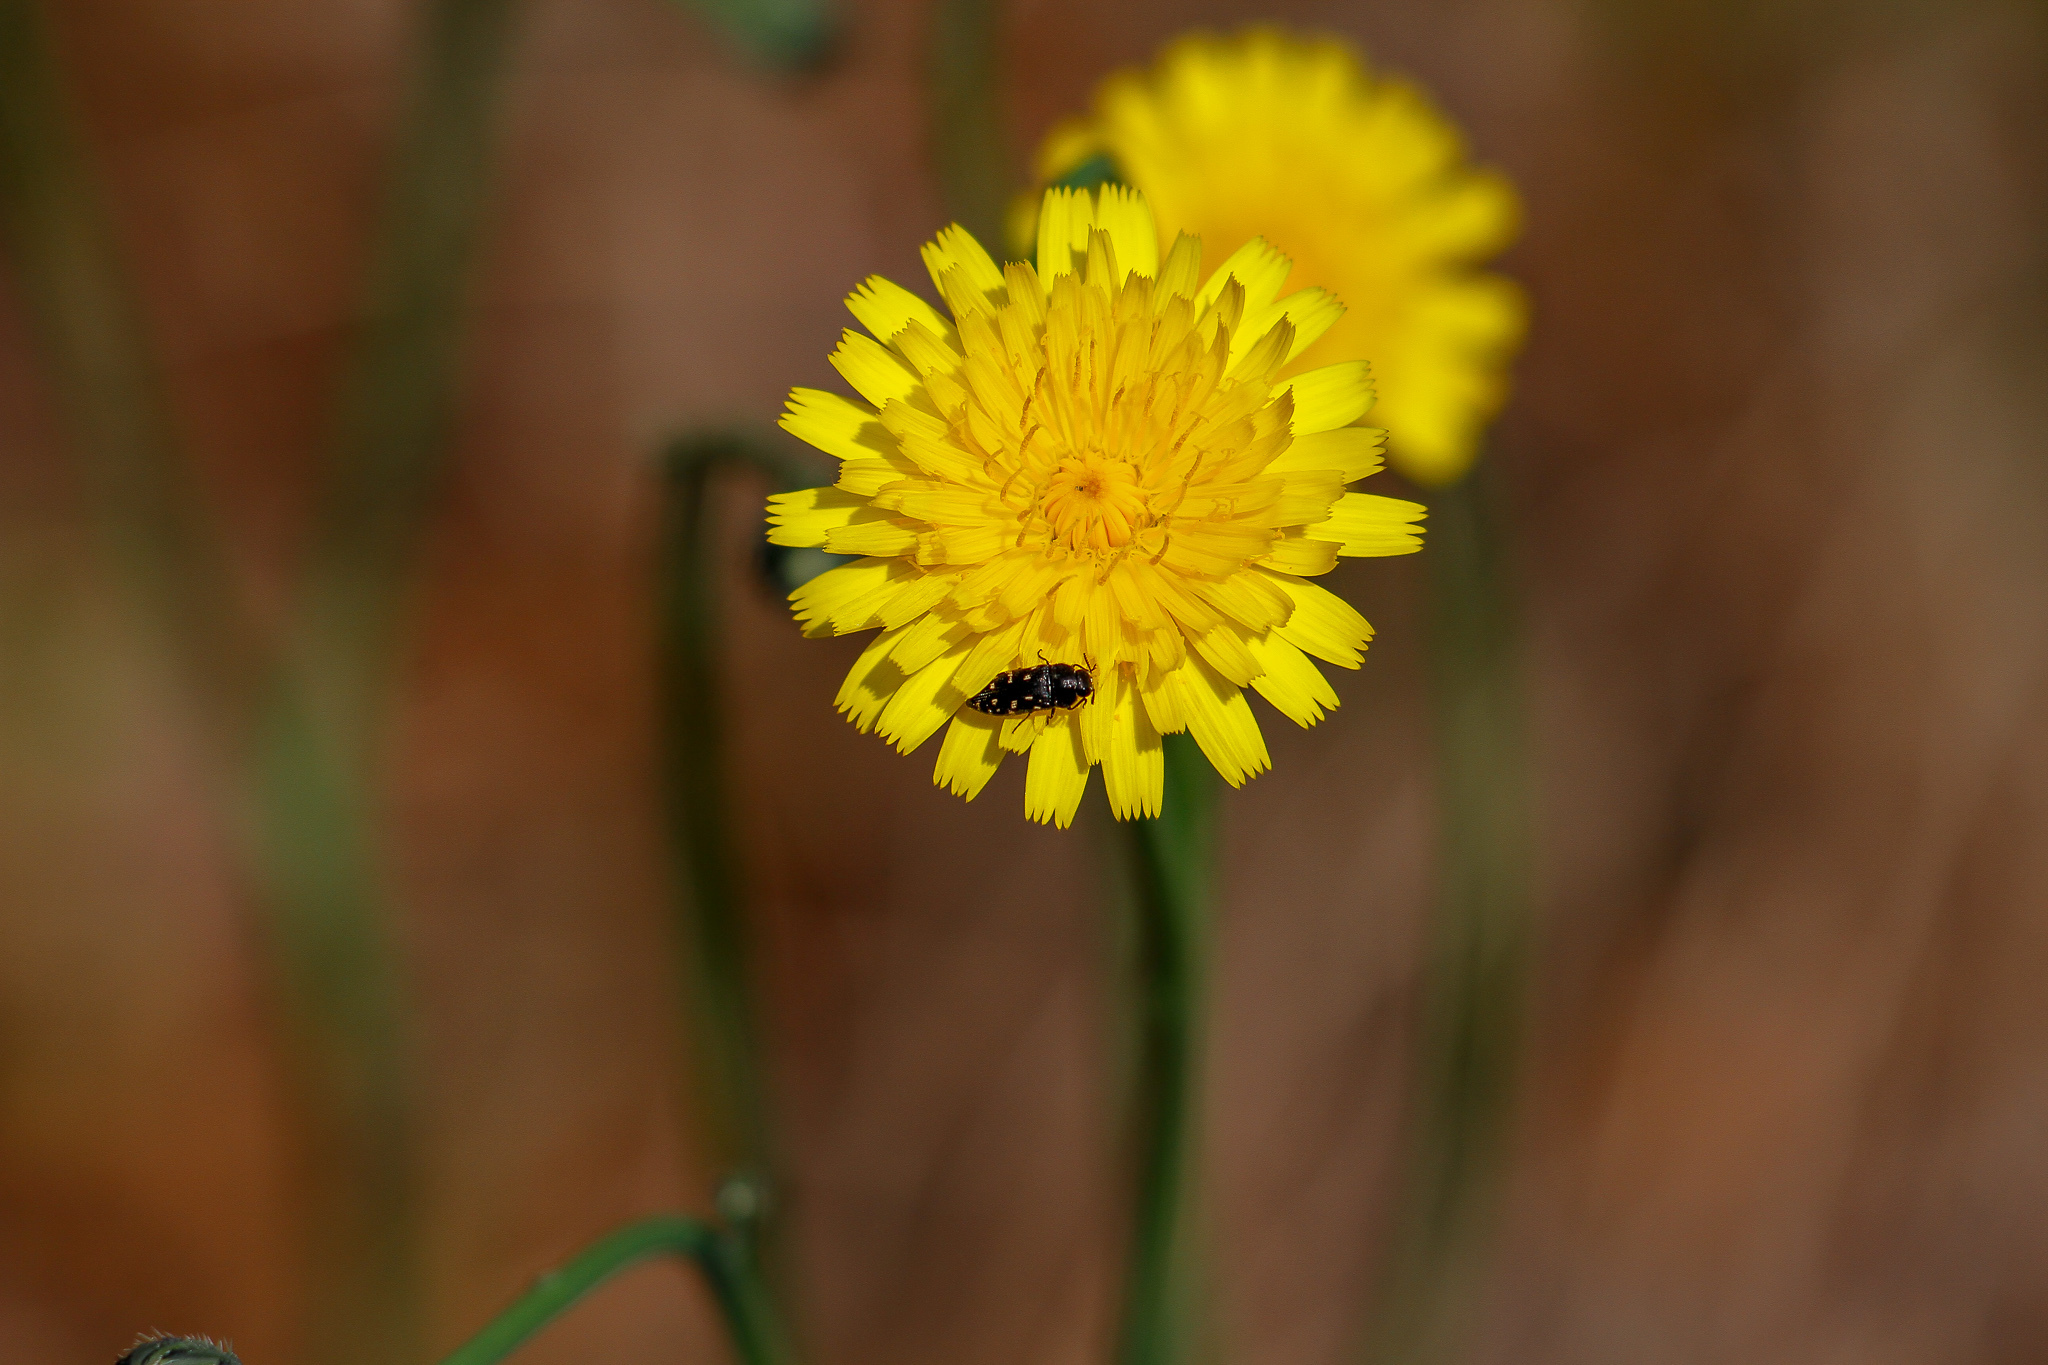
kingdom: Animalia
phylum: Arthropoda
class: Insecta
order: Coleoptera
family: Buprestidae
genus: Acmaeodera
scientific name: Acmaeodera tubulus
